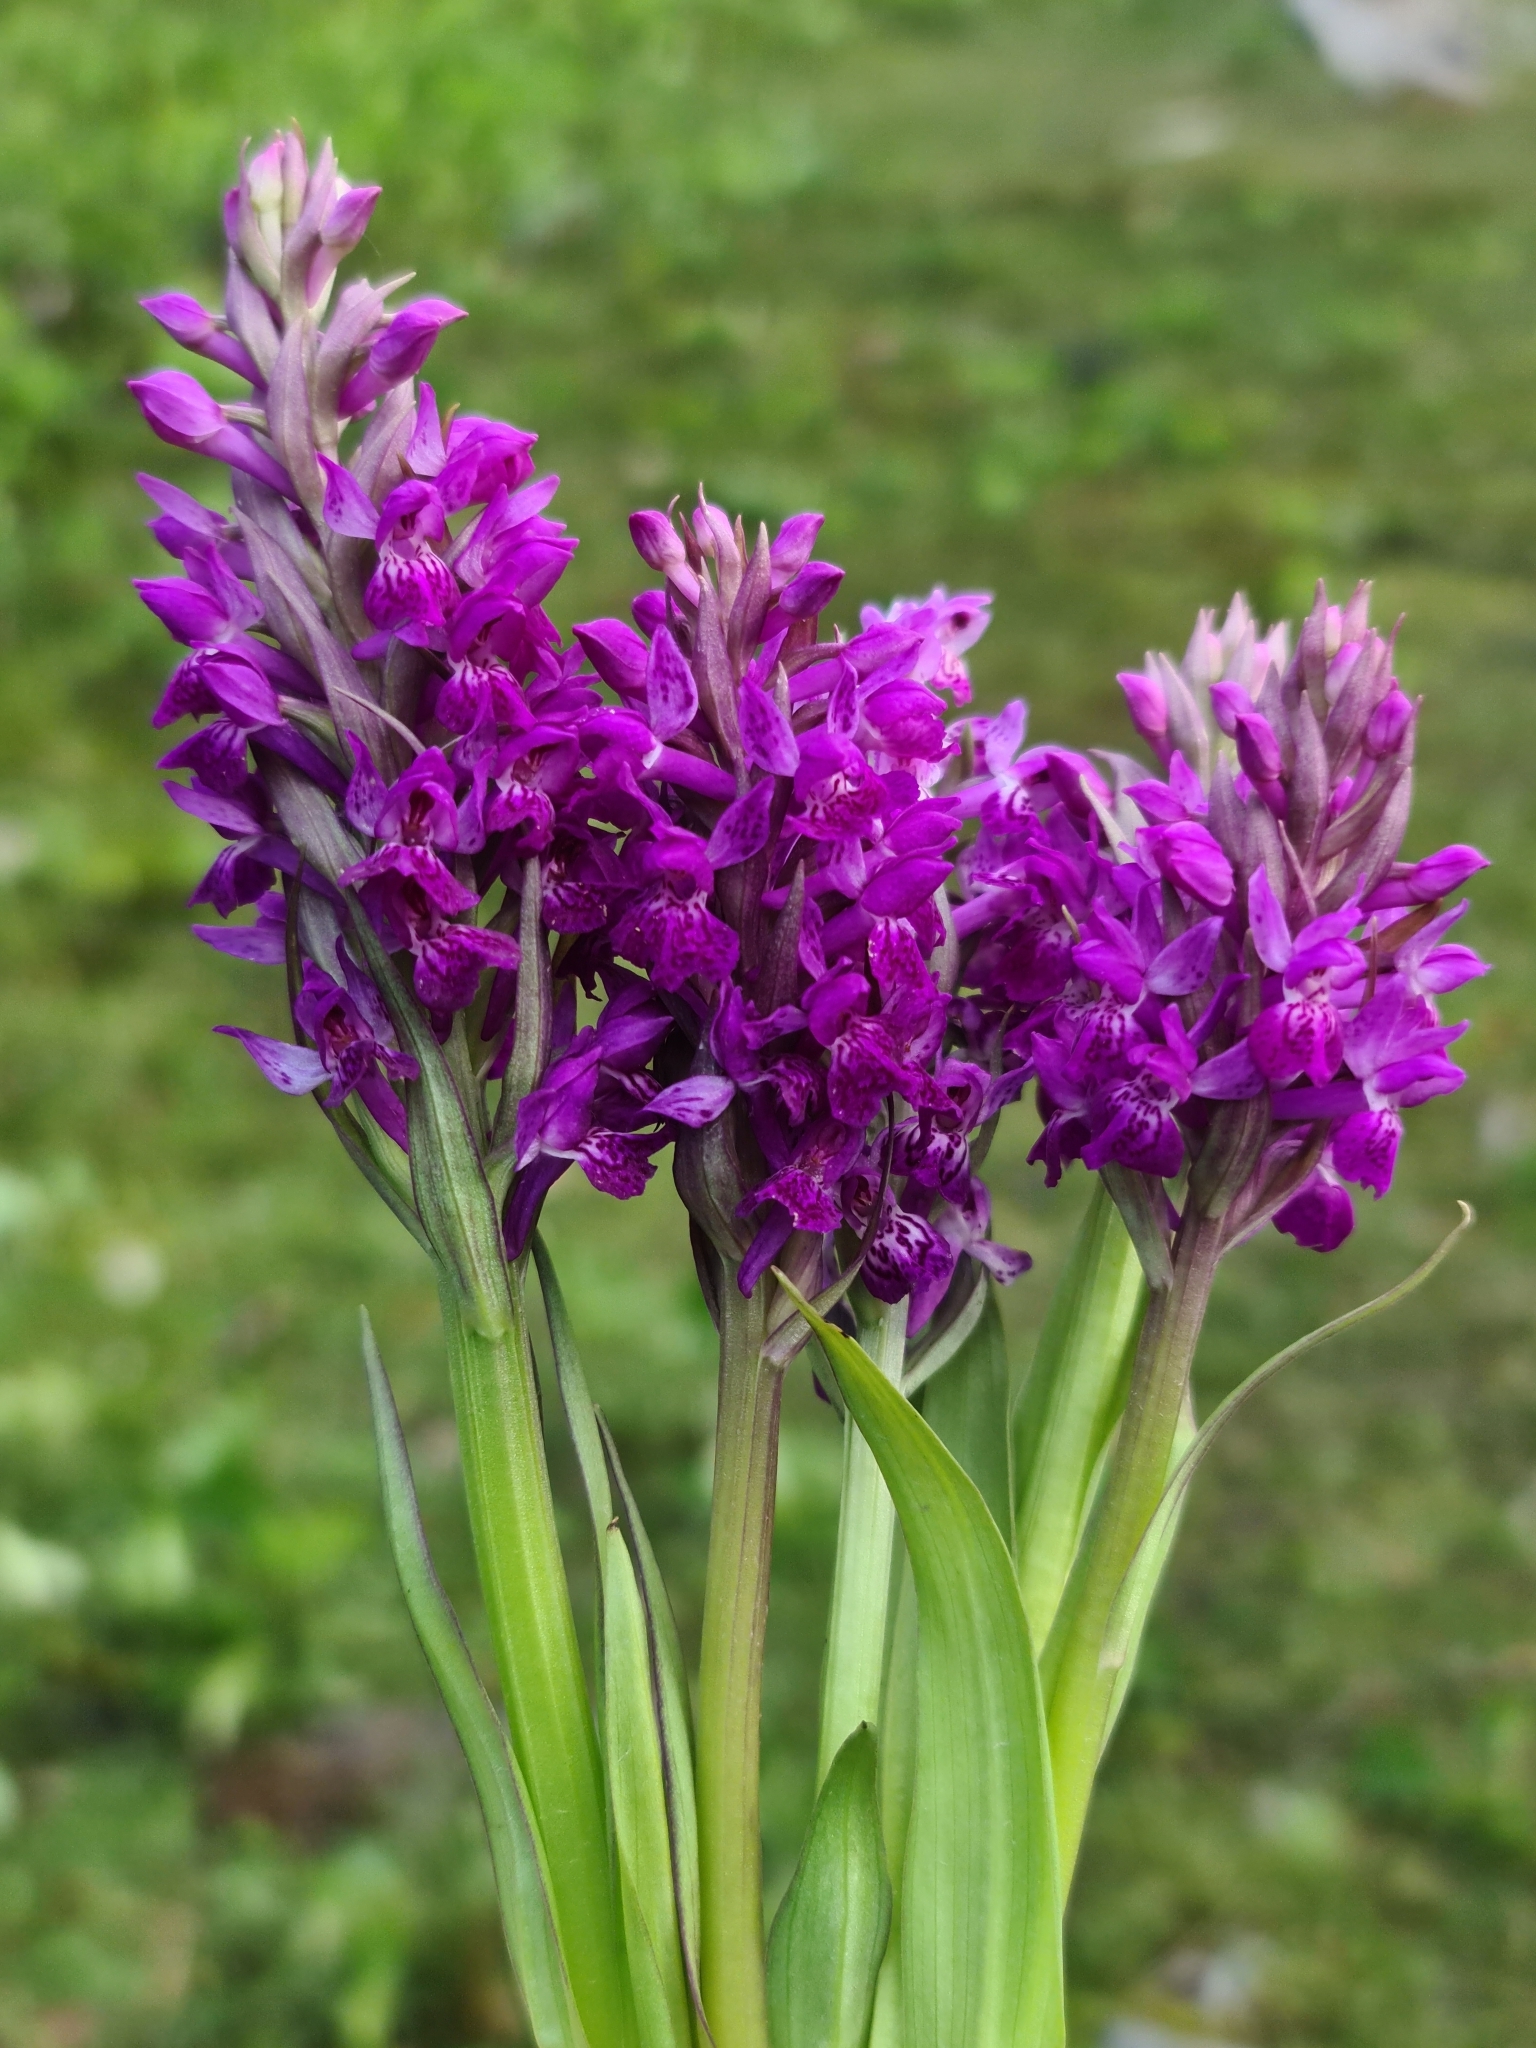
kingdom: Plantae
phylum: Tracheophyta
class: Liliopsida
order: Asparagales
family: Orchidaceae
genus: Dactylorhiza
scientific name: Dactylorhiza hatagirea
